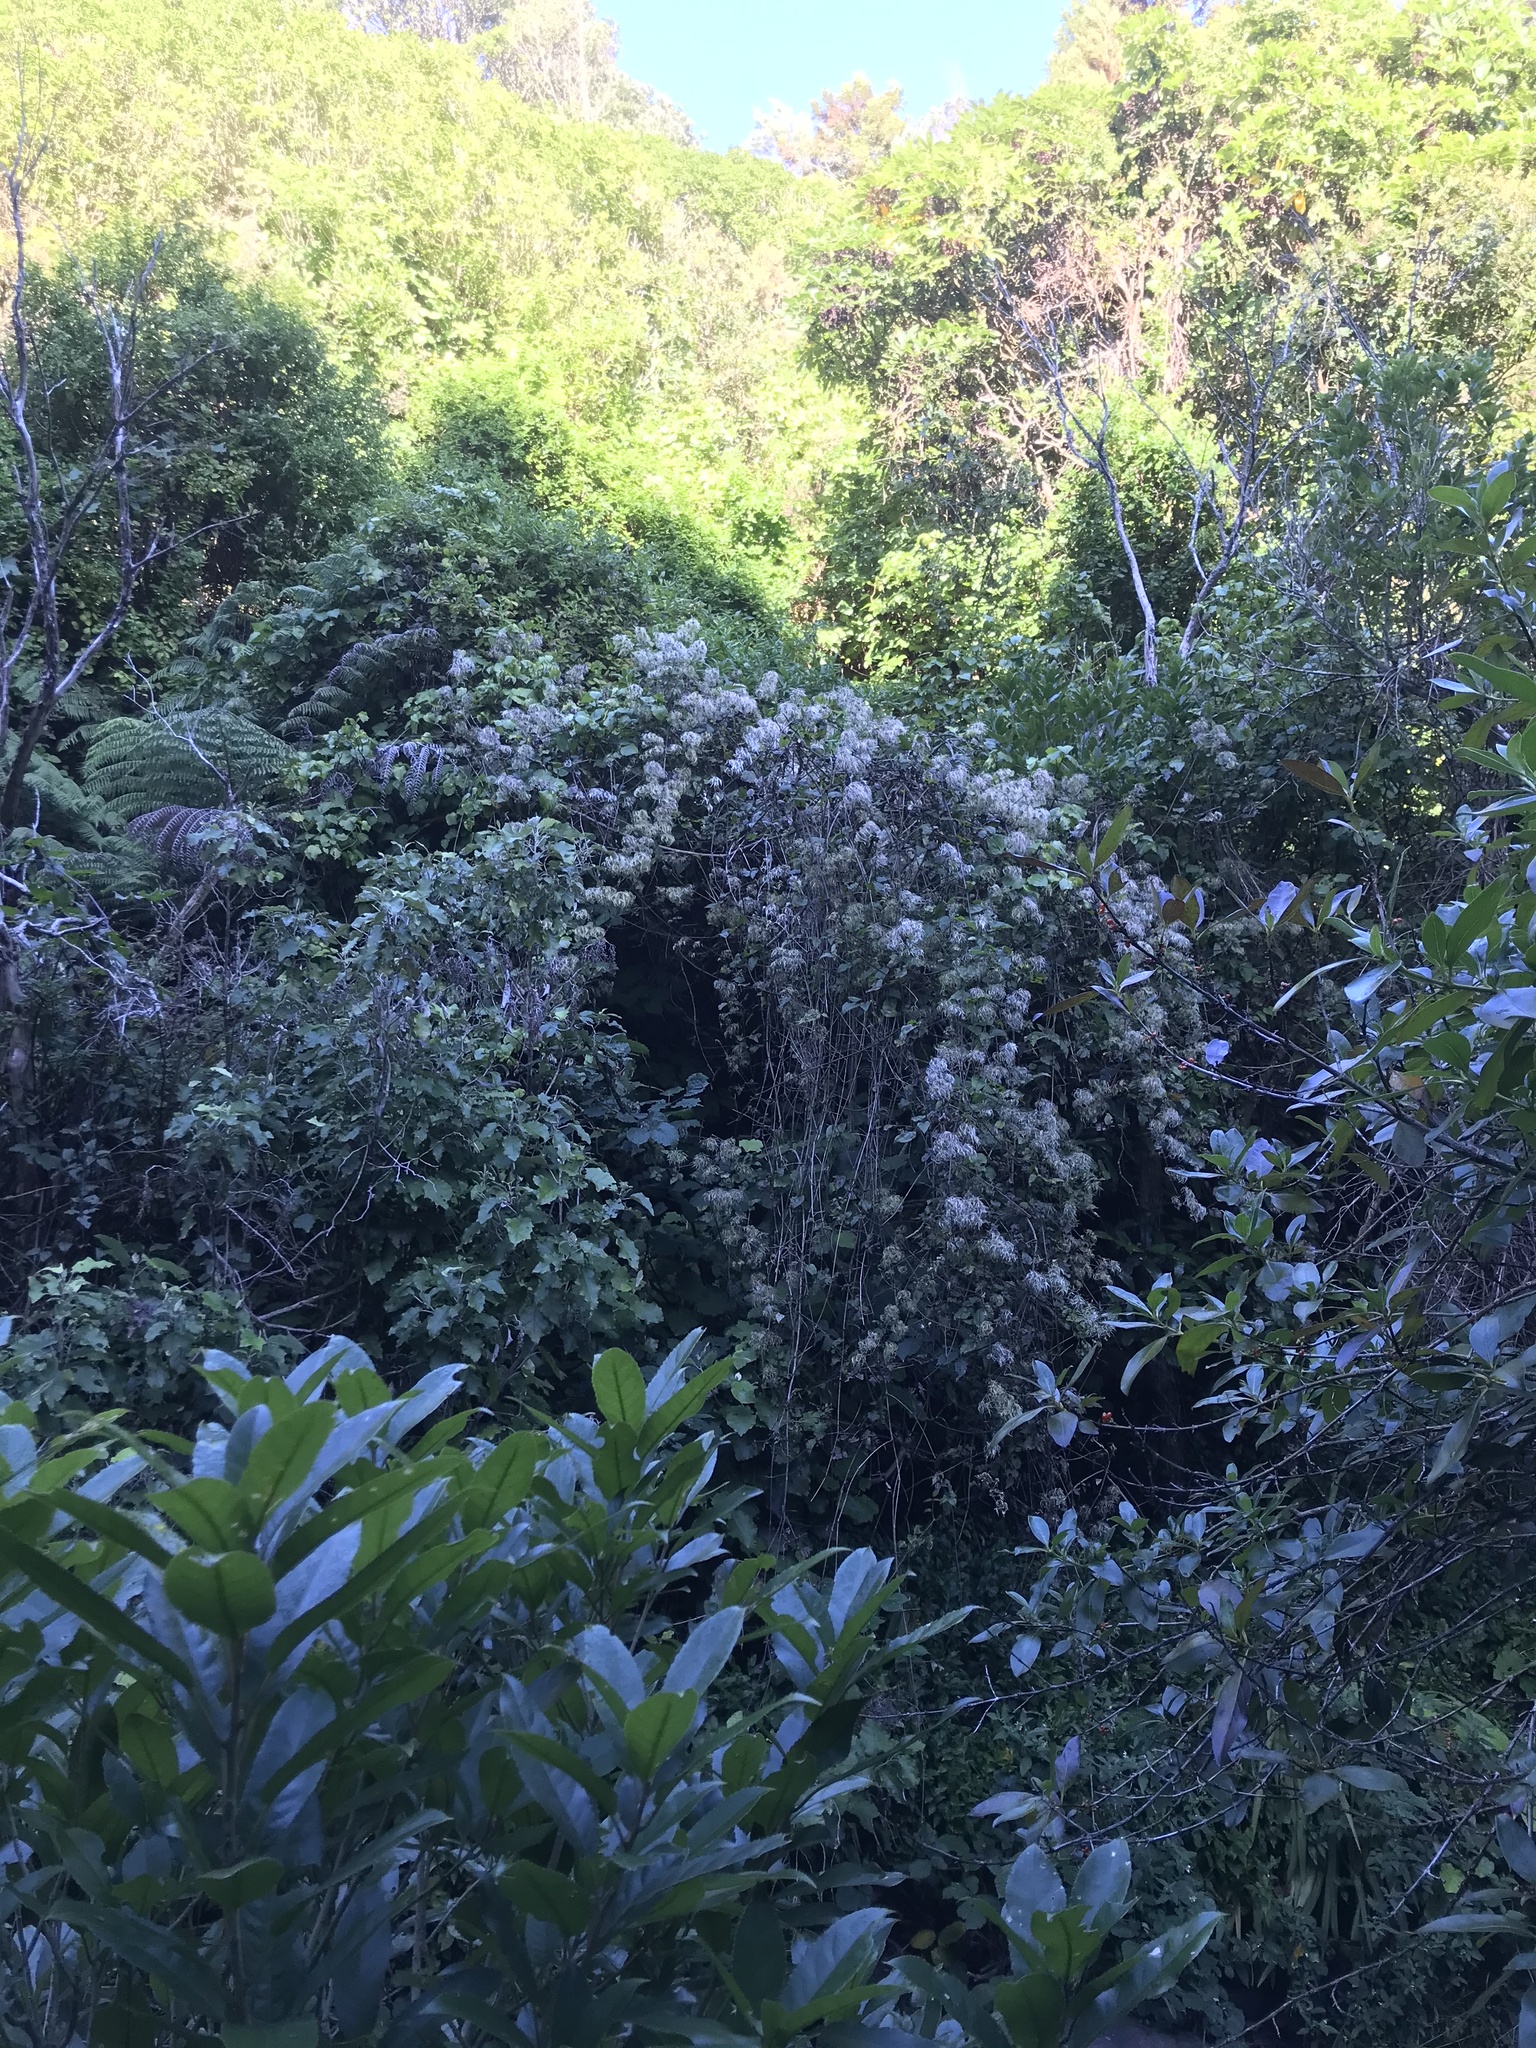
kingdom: Plantae
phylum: Tracheophyta
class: Magnoliopsida
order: Ranunculales
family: Ranunculaceae
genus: Clematis
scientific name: Clematis vitalba
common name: Evergreen clematis
